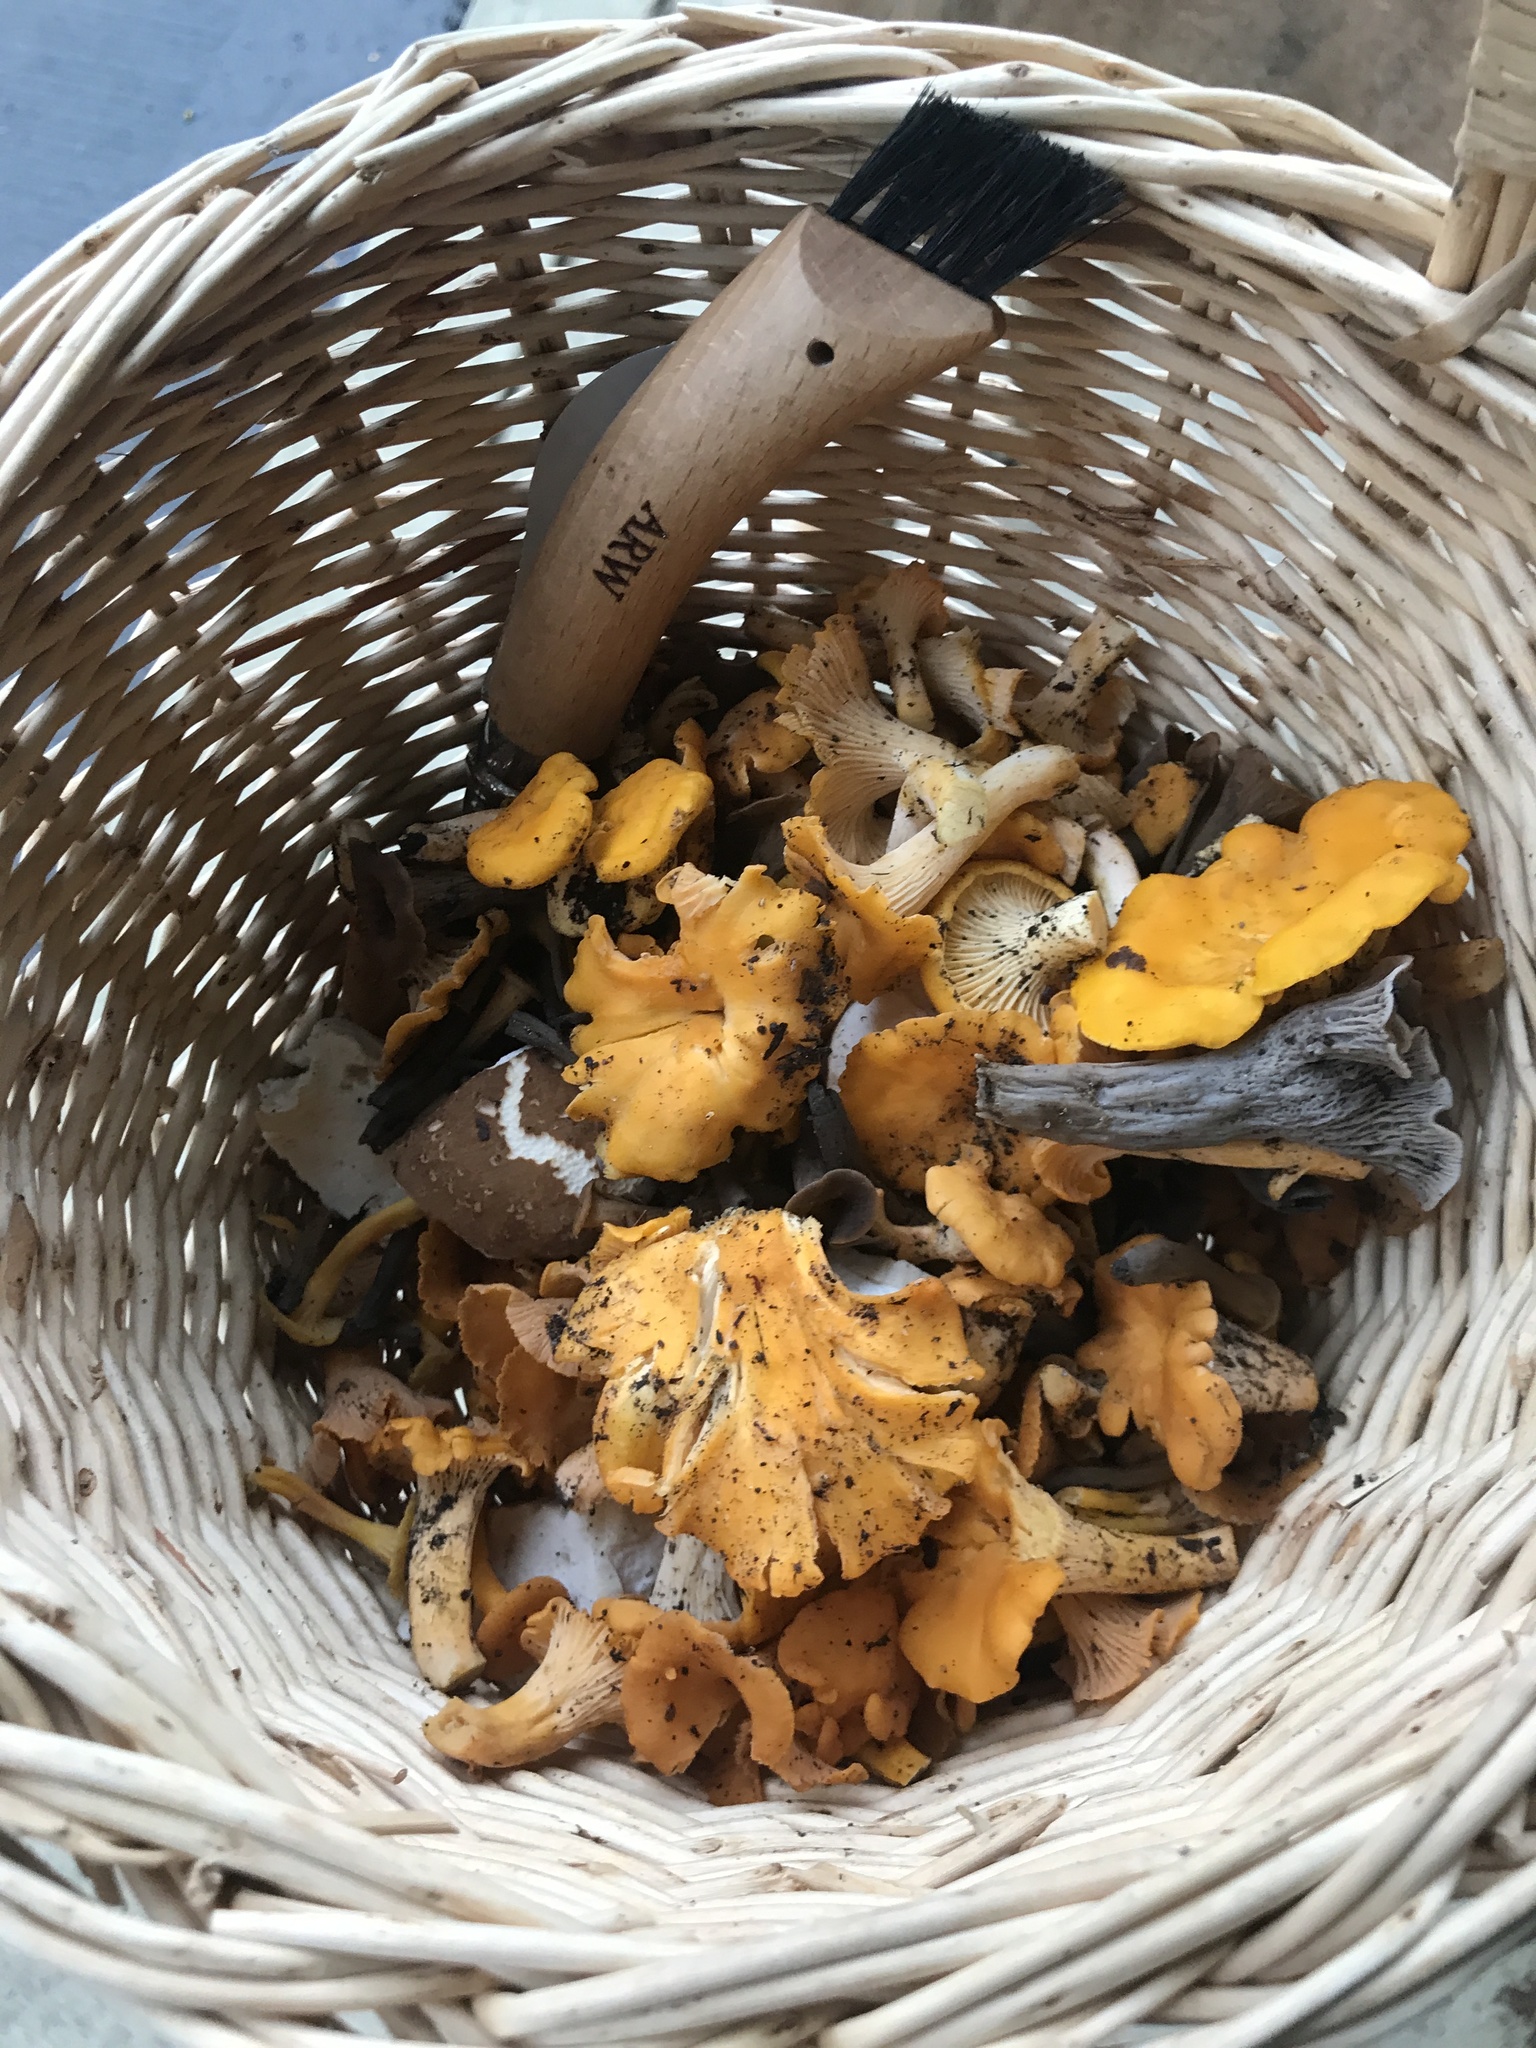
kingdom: Fungi
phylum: Basidiomycota
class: Agaricomycetes
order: Cantharellales
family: Hydnaceae
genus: Craterellus
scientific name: Craterellus venosus
